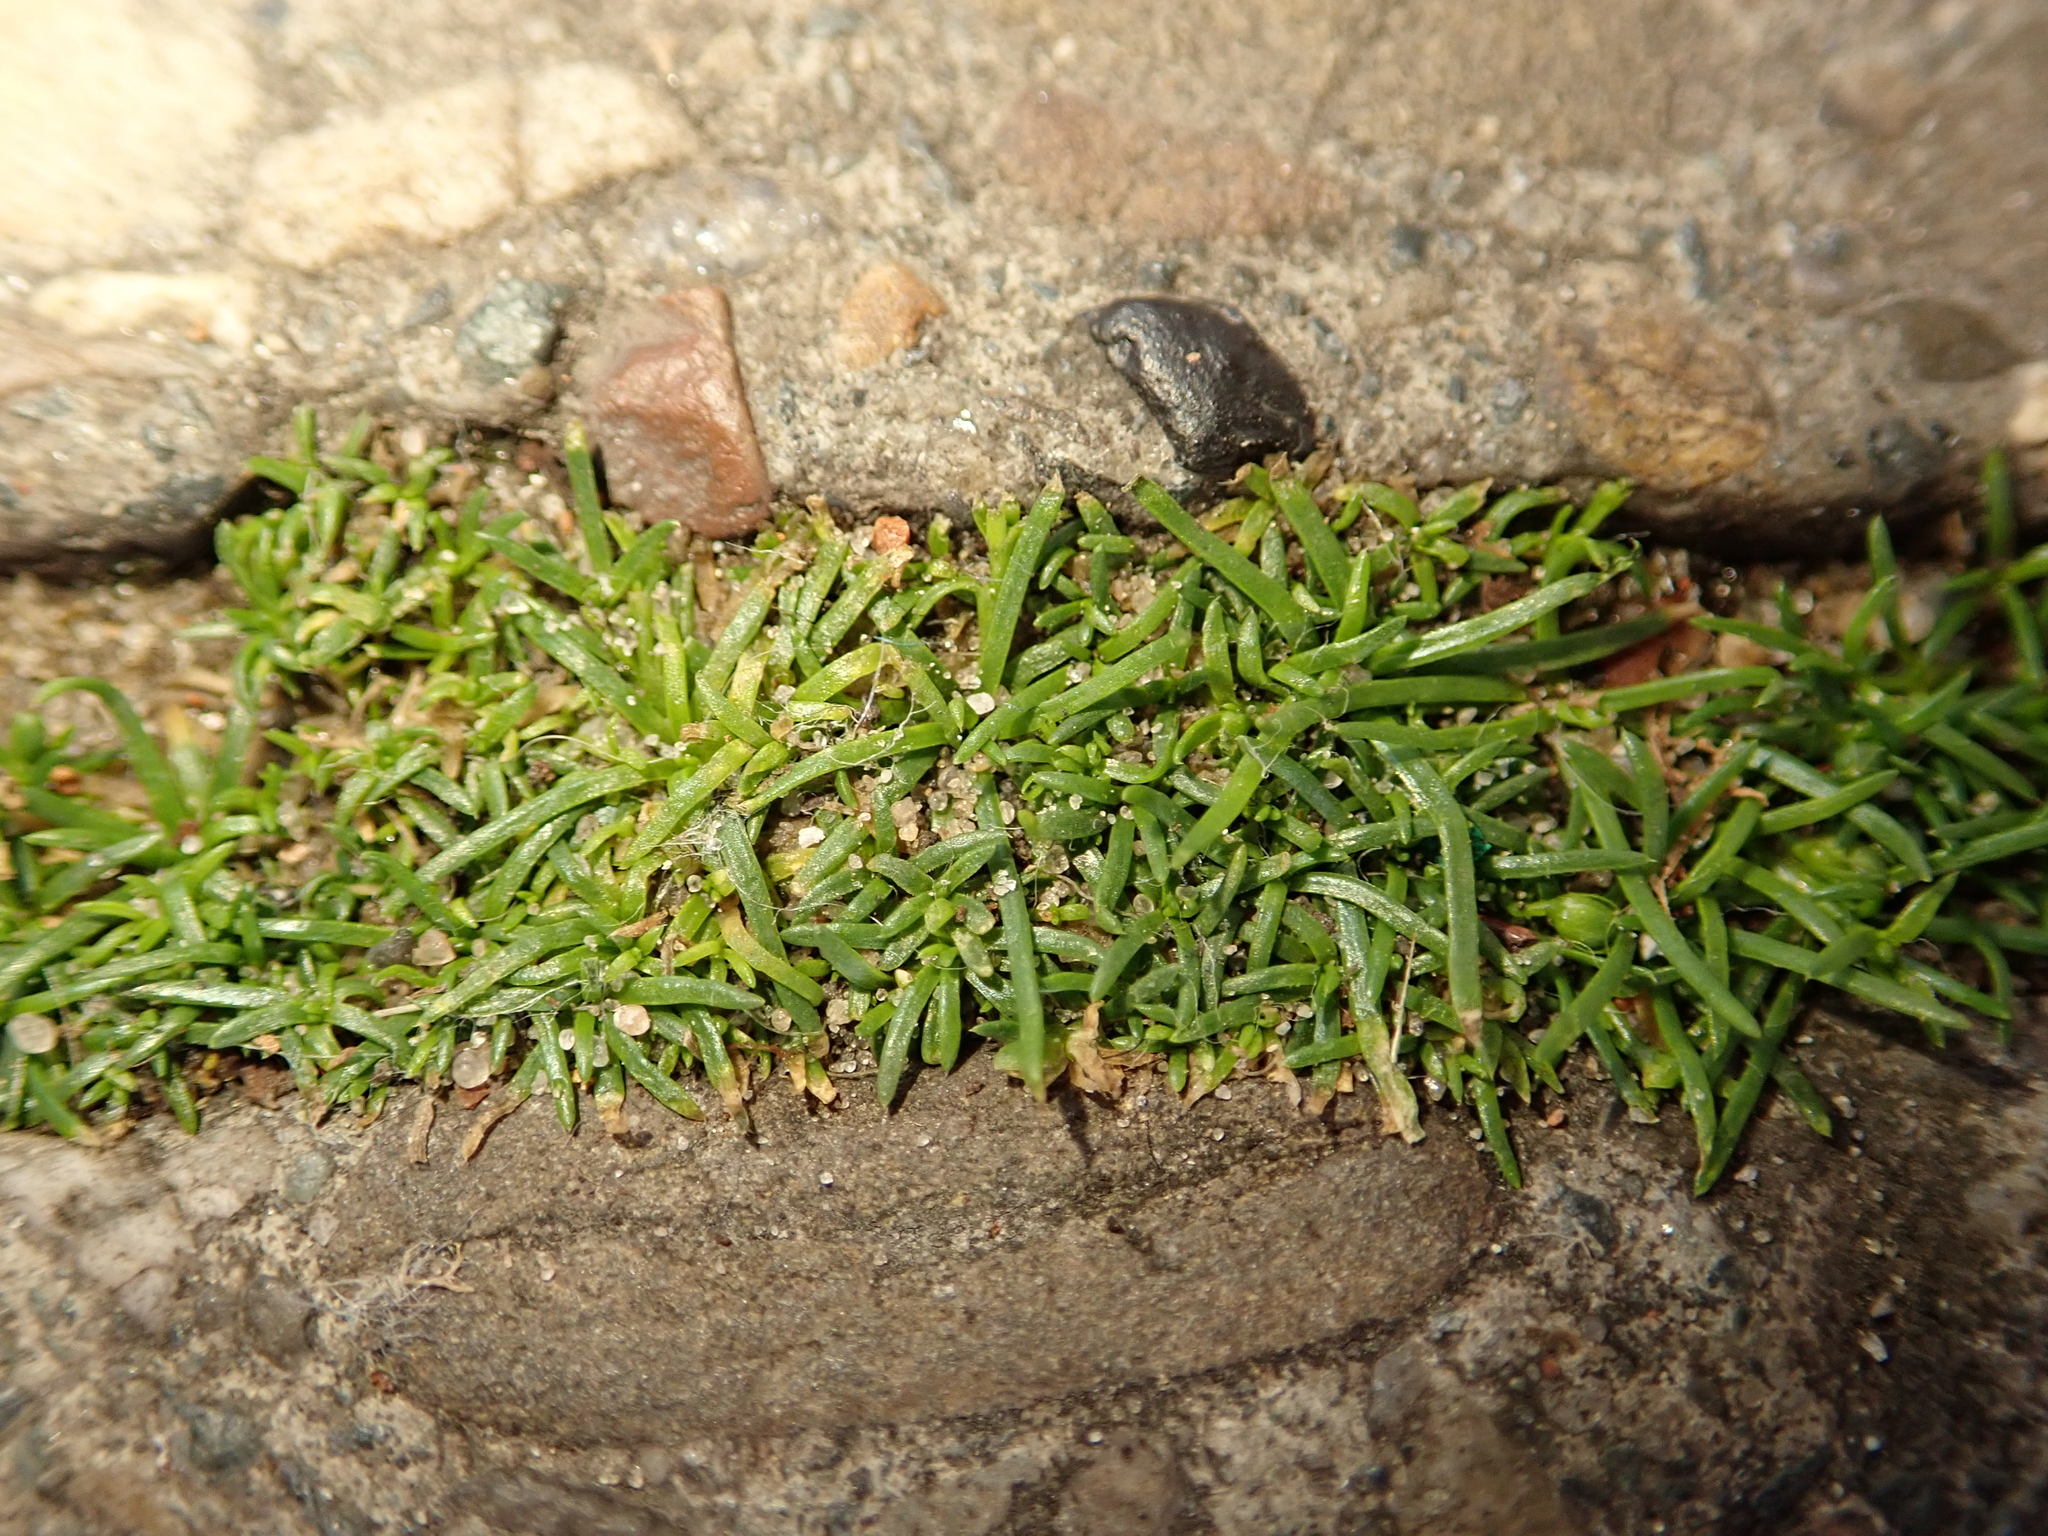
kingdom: Plantae
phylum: Tracheophyta
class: Magnoliopsida
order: Caryophyllales
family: Caryophyllaceae
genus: Sagina
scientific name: Sagina procumbens
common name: Procumbent pearlwort
